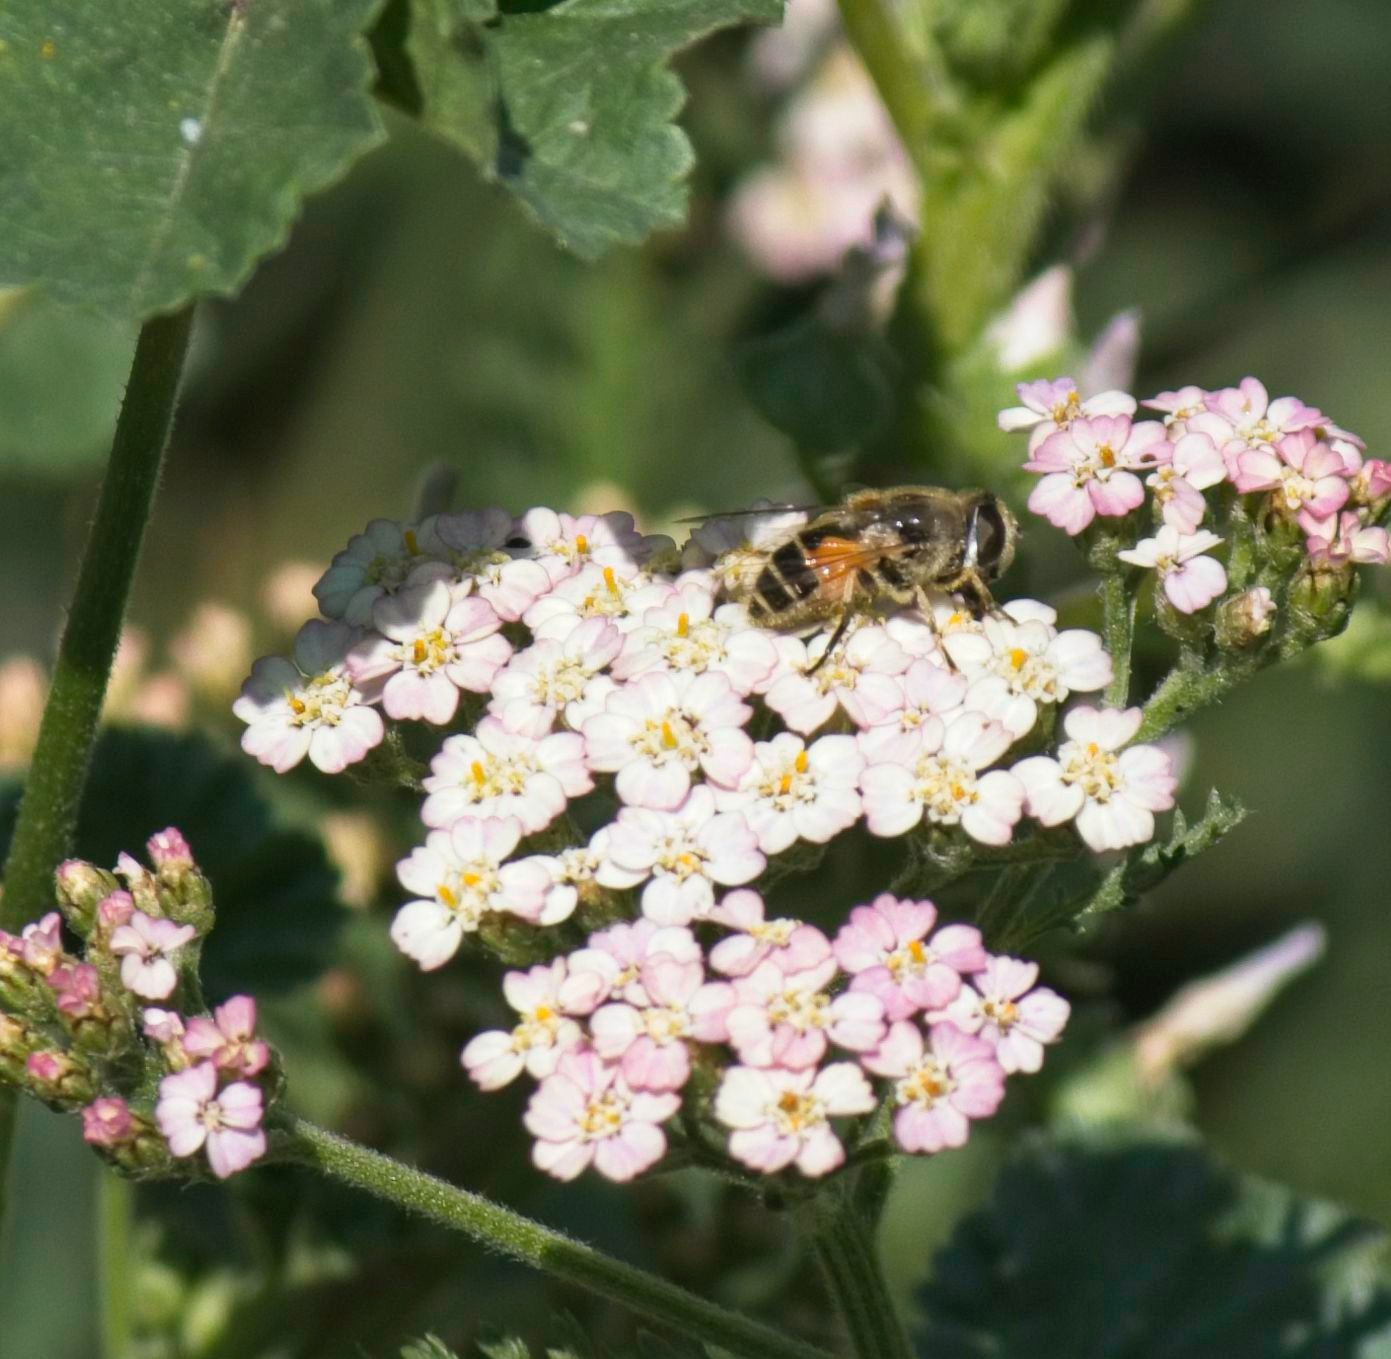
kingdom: Animalia
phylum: Arthropoda
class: Insecta
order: Diptera
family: Syrphidae
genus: Eristalis
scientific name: Eristalis arbustorum
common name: Hover fly
